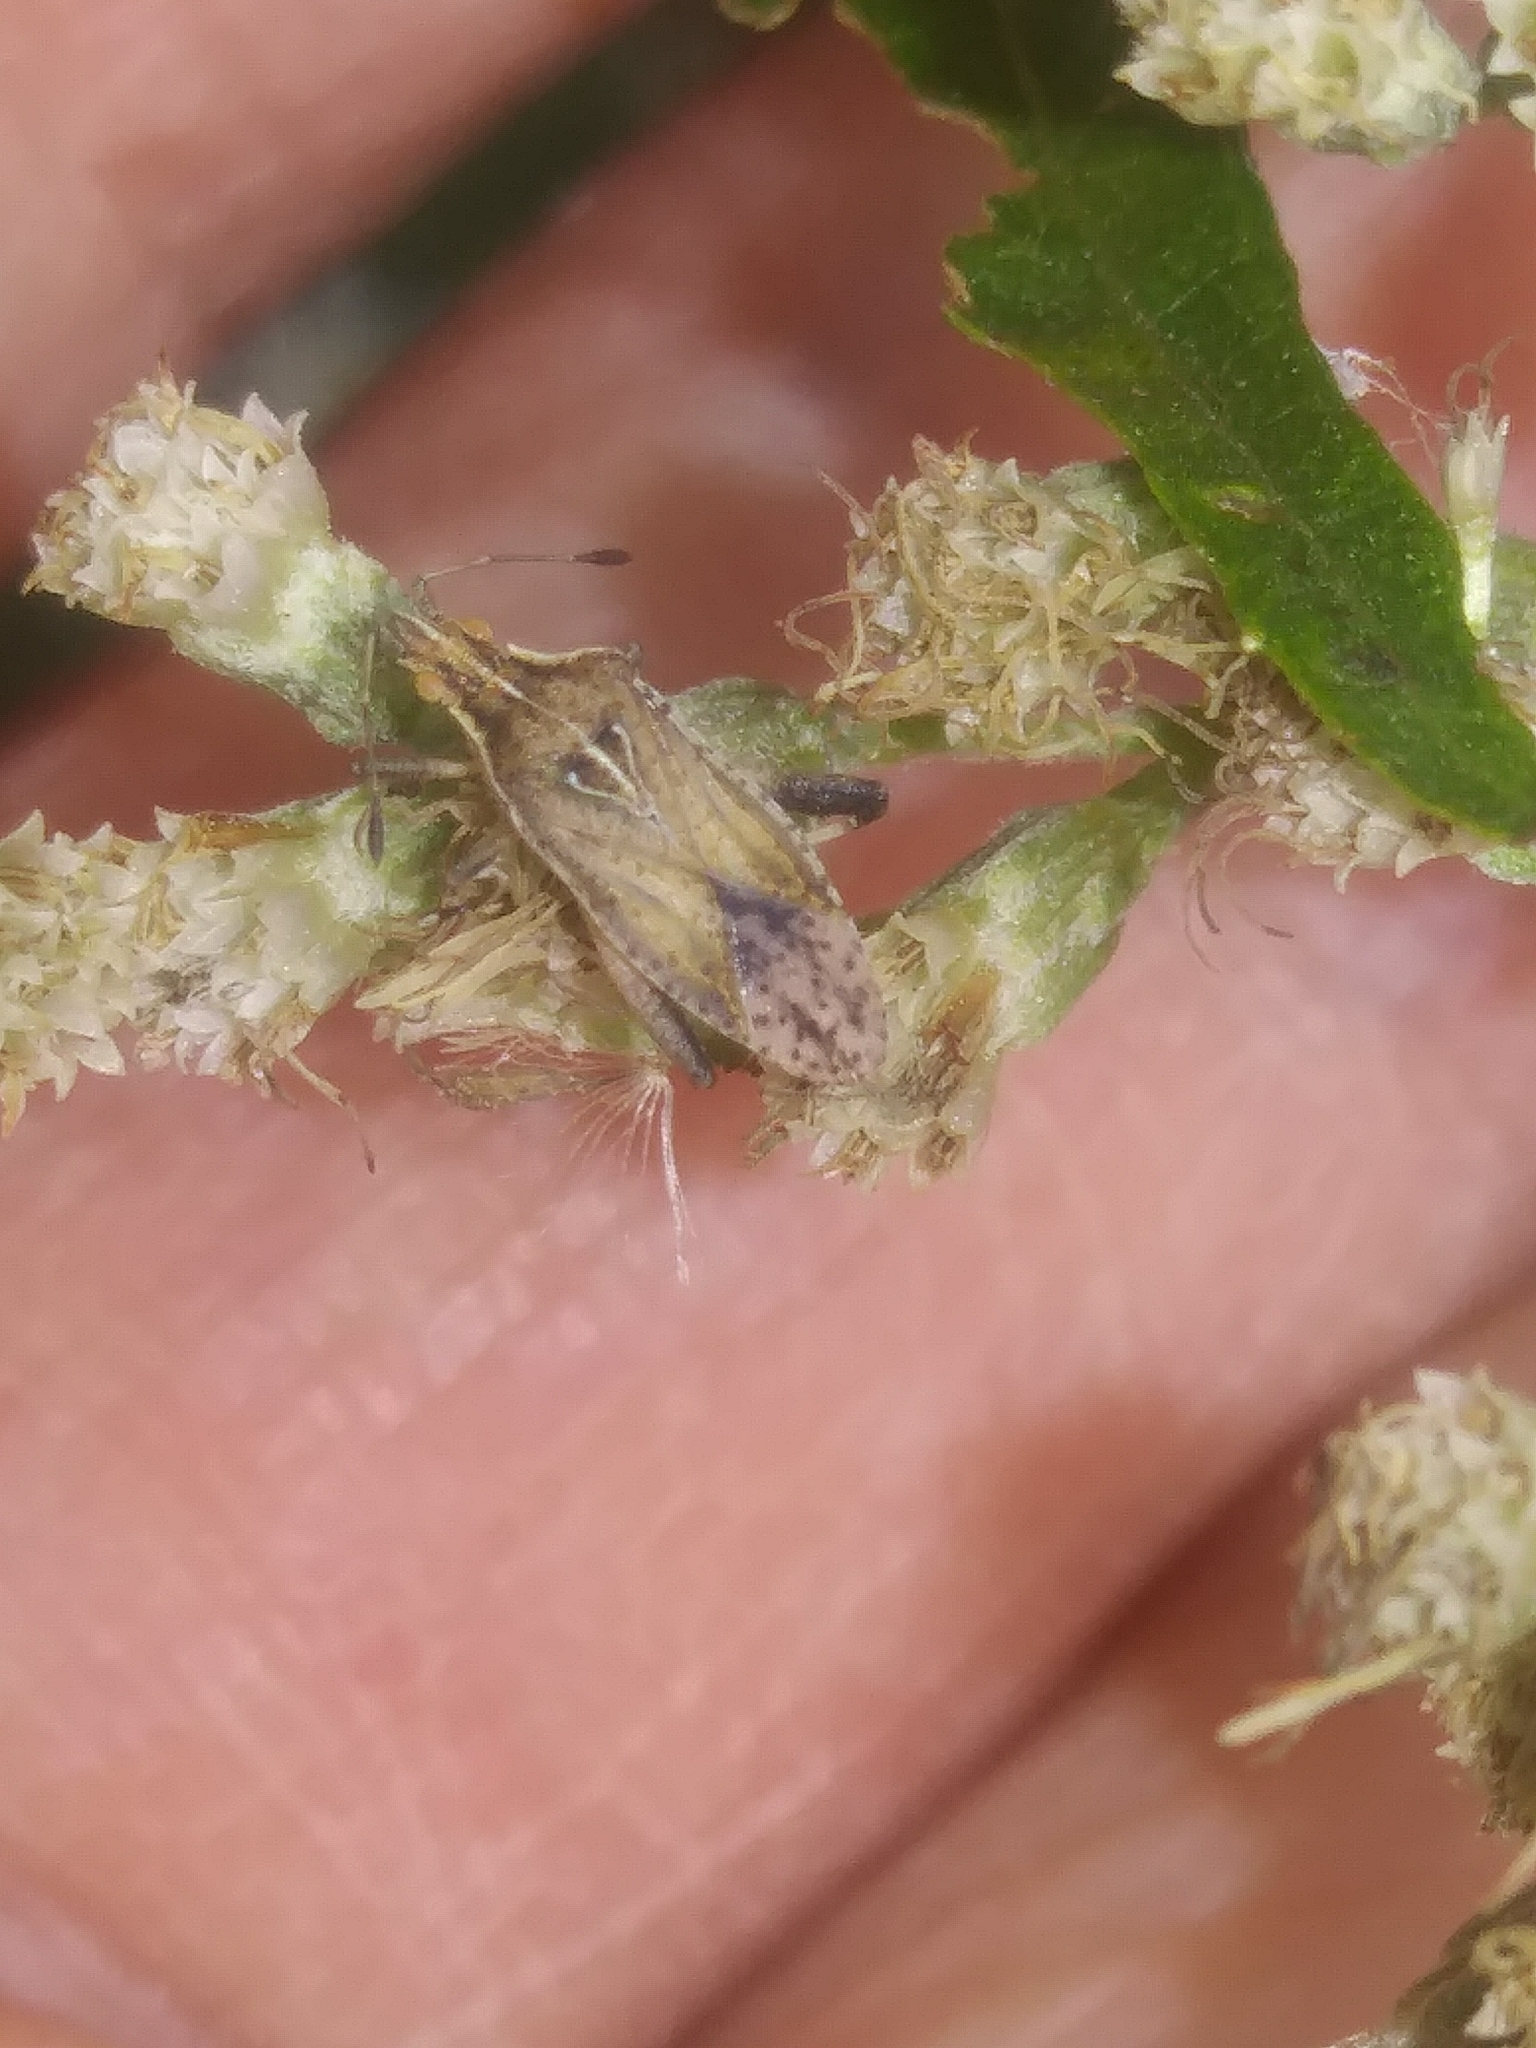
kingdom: Animalia
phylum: Arthropoda
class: Insecta
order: Hemiptera
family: Rhopalidae
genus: Harmostes
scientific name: Harmostes fraterculus
